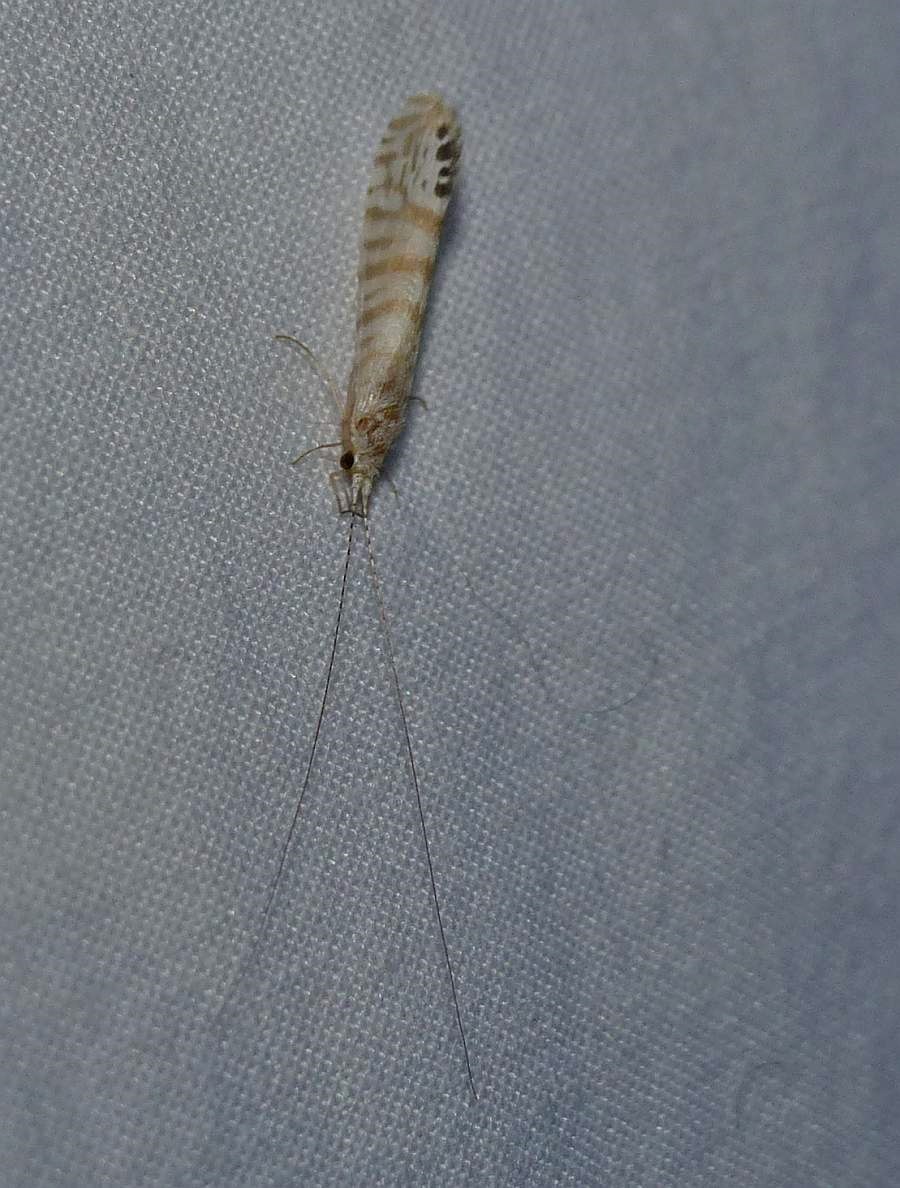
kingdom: Animalia
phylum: Arthropoda
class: Insecta
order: Trichoptera
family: Leptoceridae
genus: Nectopsyche
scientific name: Nectopsyche exquisita
